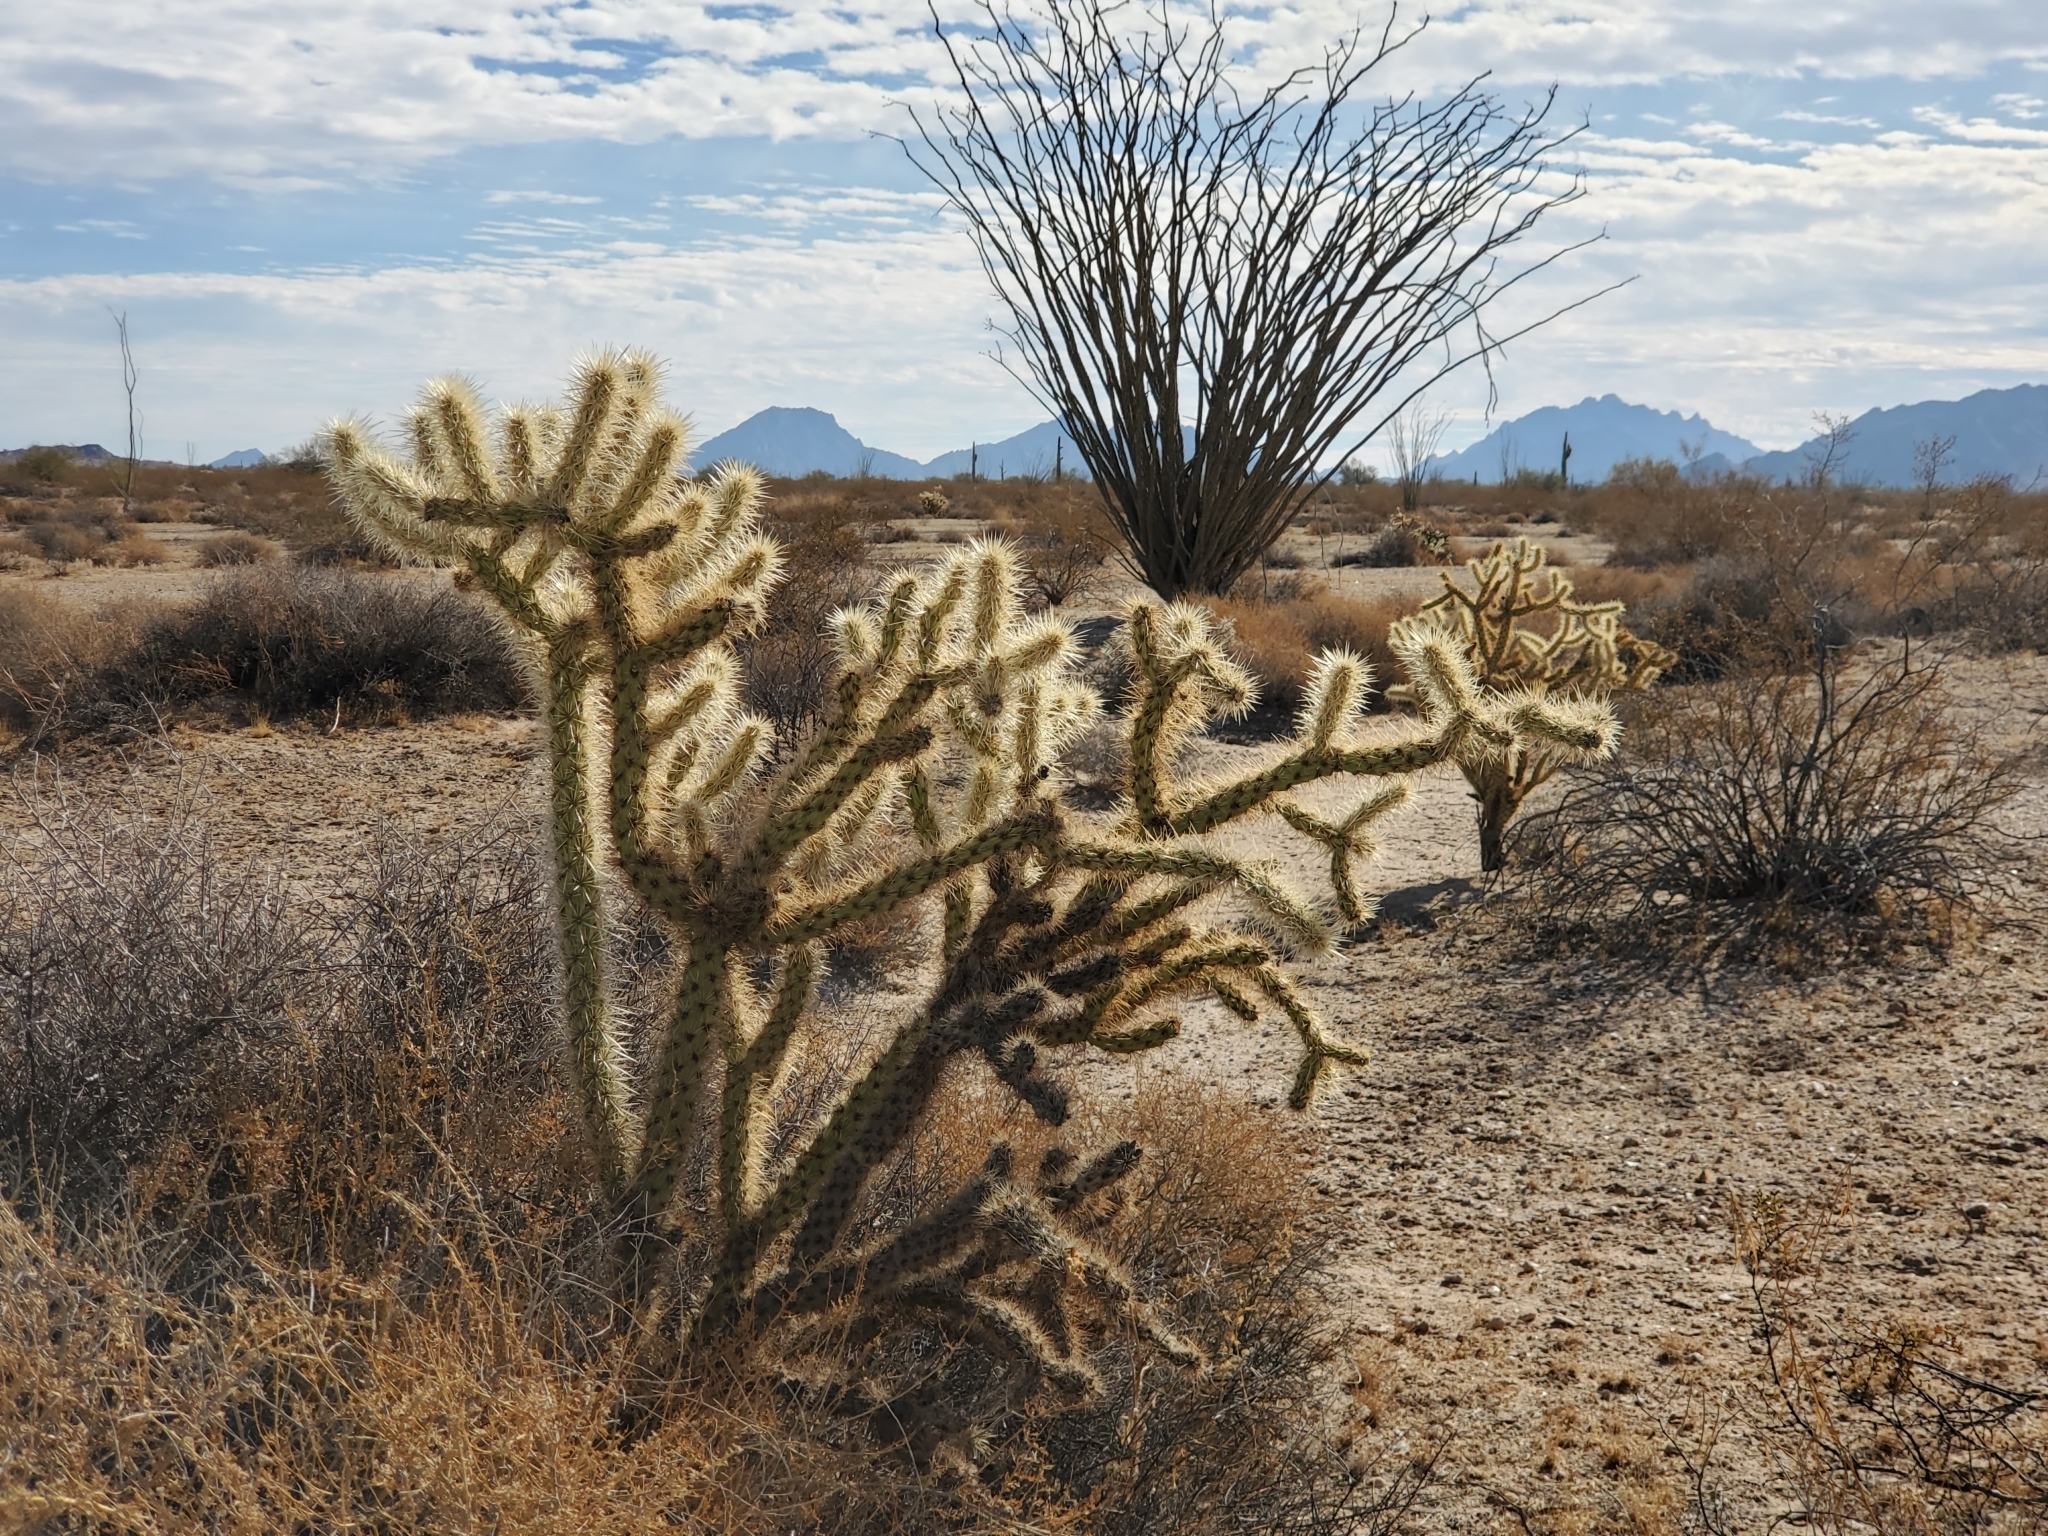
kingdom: Plantae
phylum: Tracheophyta
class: Magnoliopsida
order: Caryophyllales
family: Cactaceae
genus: Cylindropuntia
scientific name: Cylindropuntia acanthocarpa
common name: Buckhorn cholla
